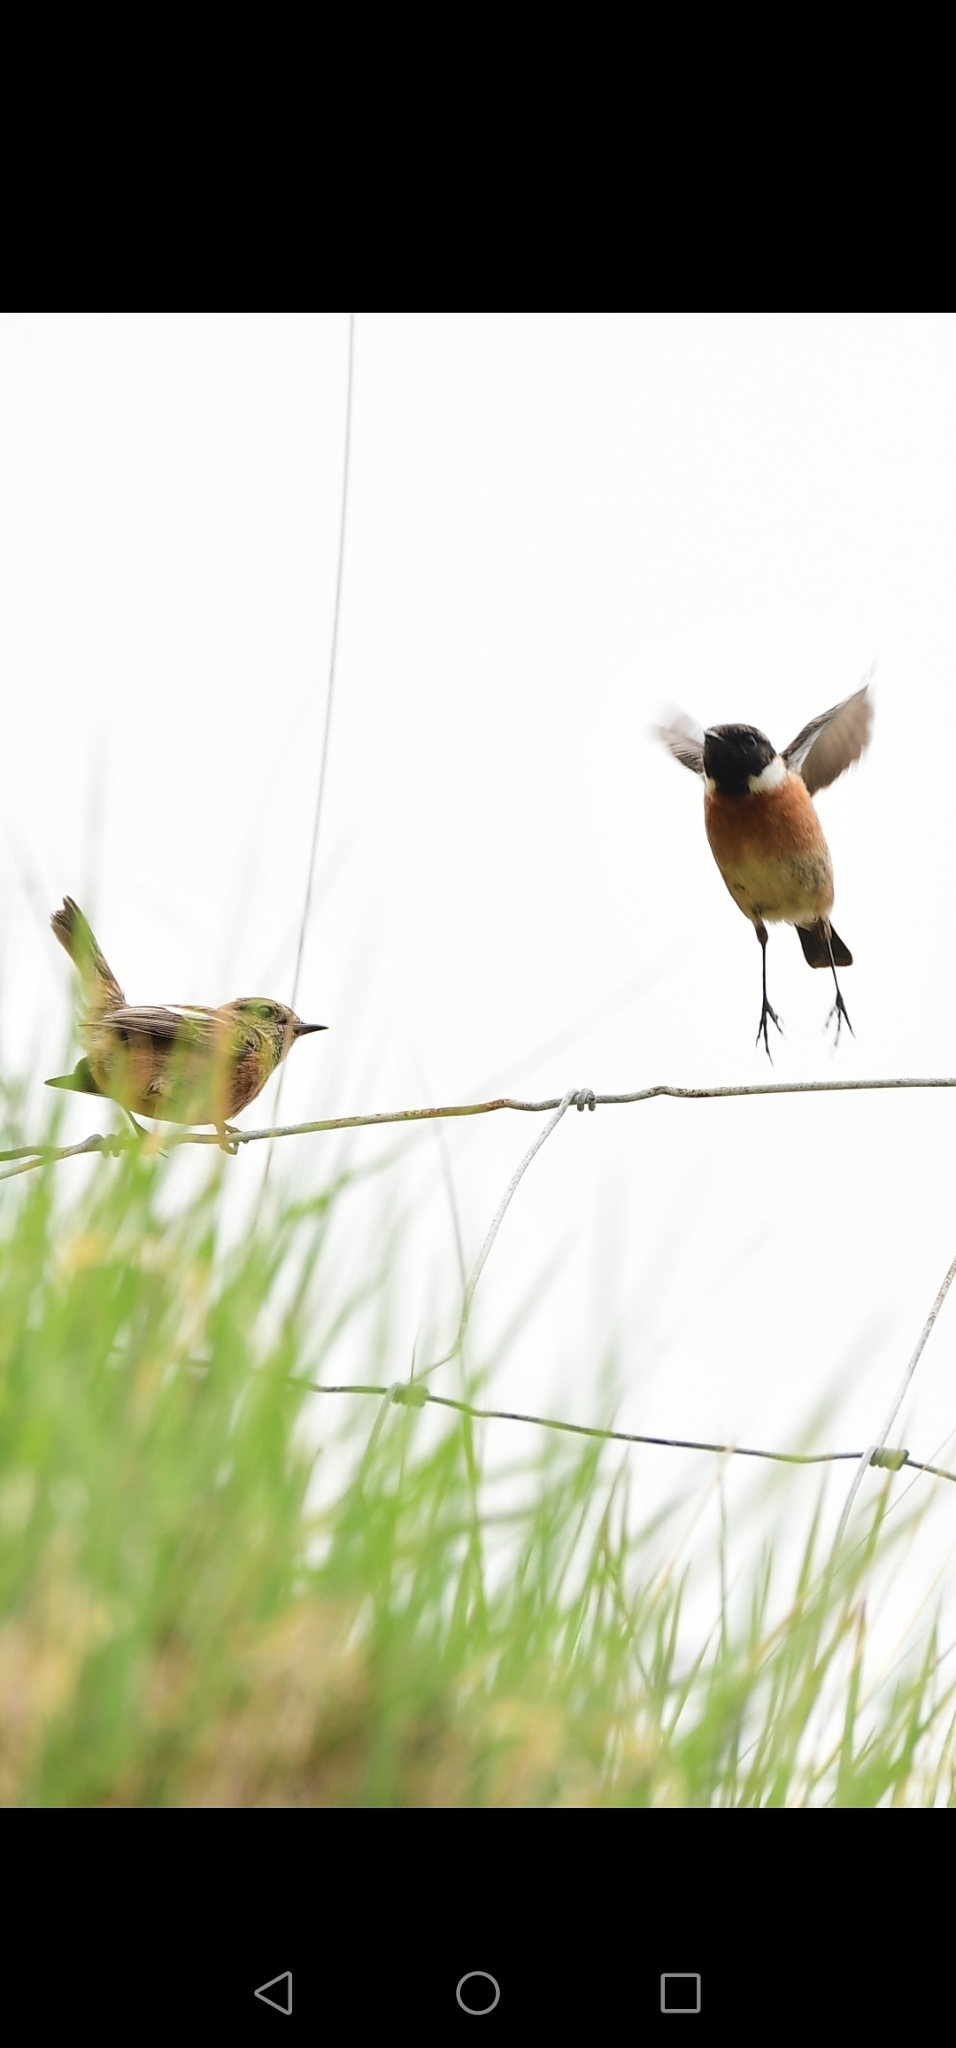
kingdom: Animalia
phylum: Chordata
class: Aves
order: Passeriformes
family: Muscicapidae
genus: Saxicola
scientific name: Saxicola rubicola
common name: European stonechat
